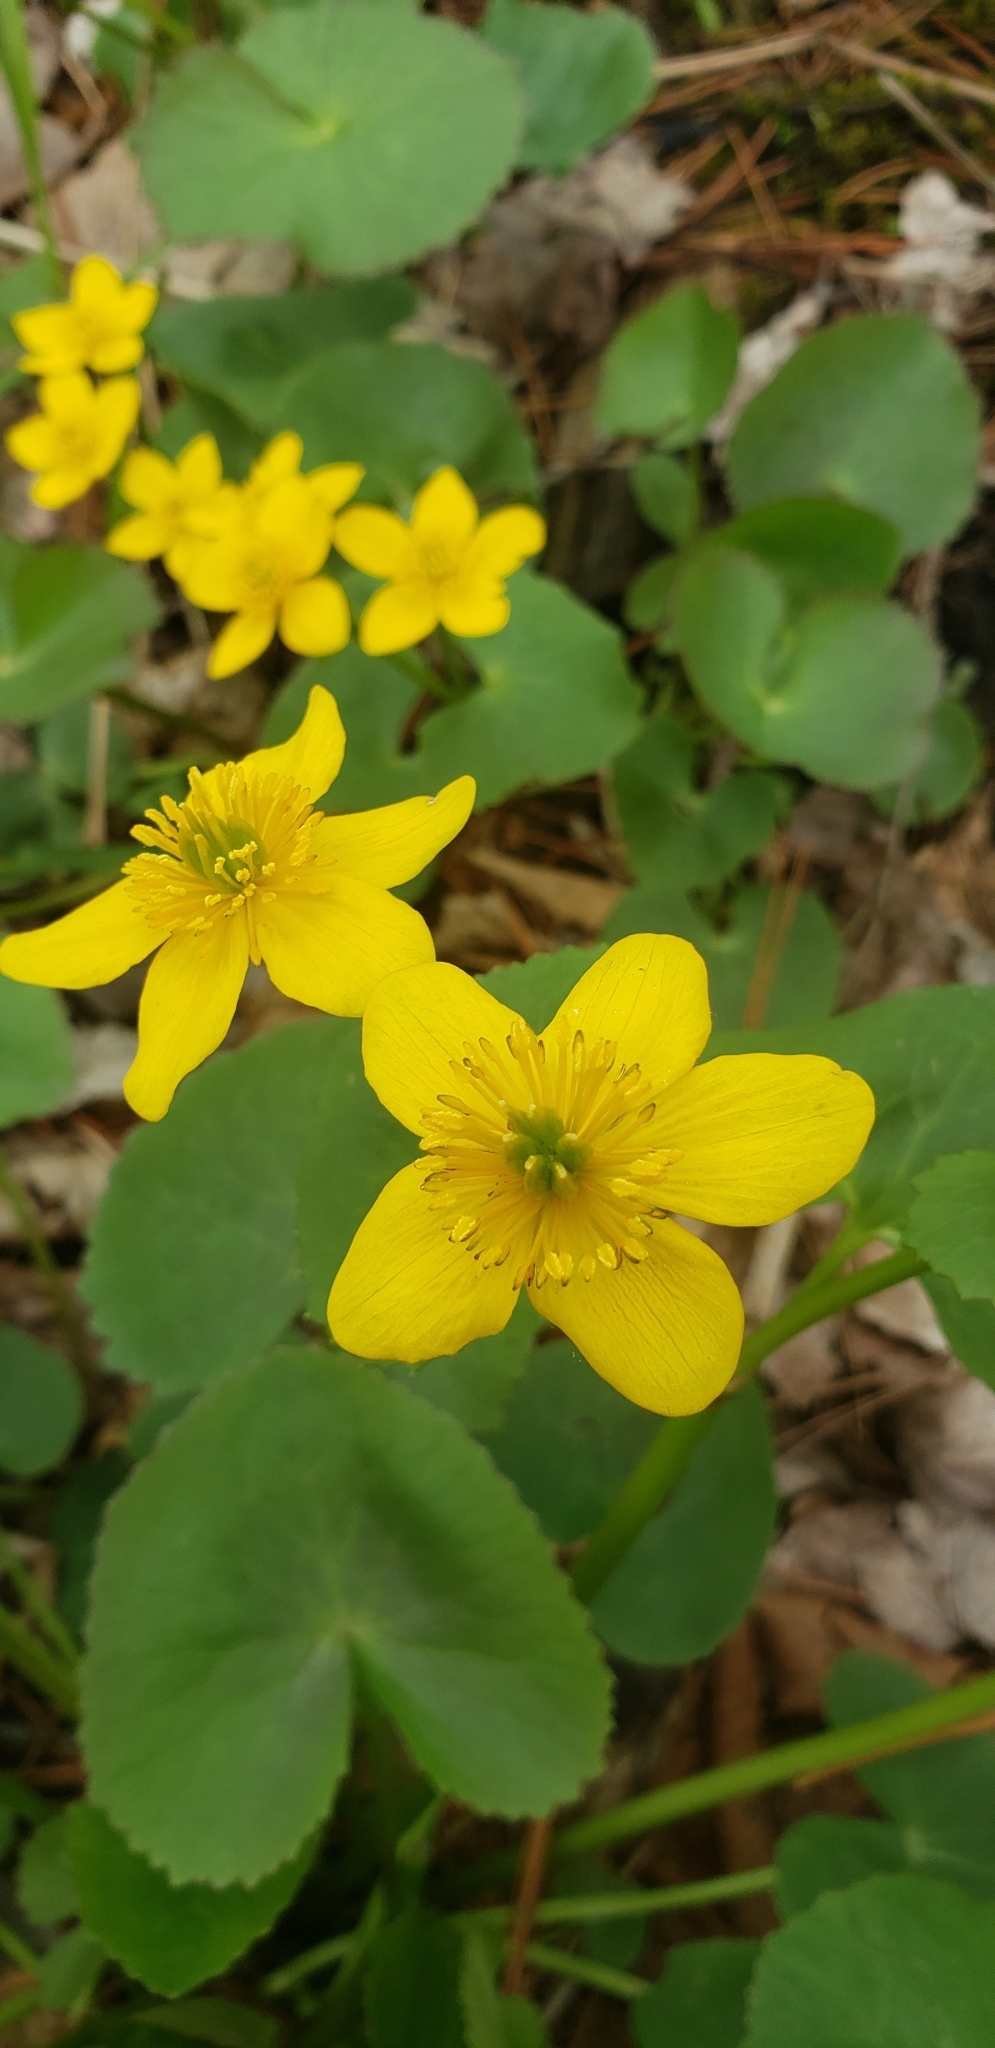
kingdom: Plantae
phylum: Tracheophyta
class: Magnoliopsida
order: Ranunculales
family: Ranunculaceae
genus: Caltha
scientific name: Caltha palustris
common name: Marsh marigold
